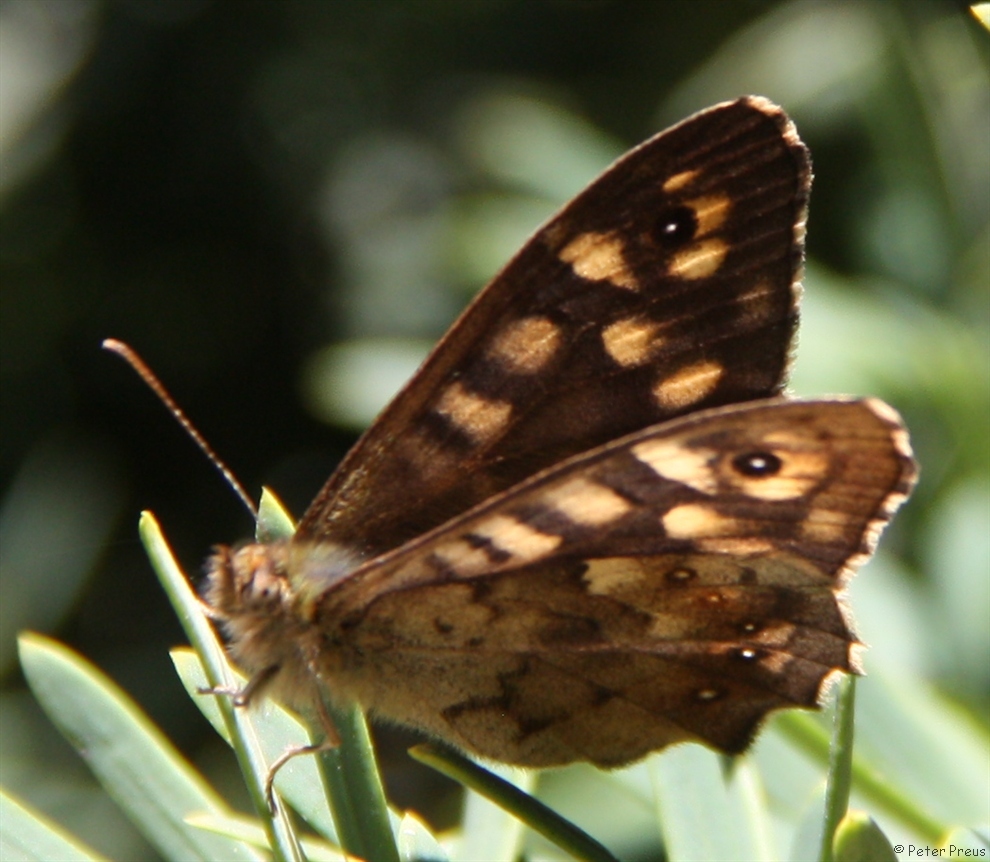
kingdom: Animalia
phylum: Arthropoda
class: Insecta
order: Lepidoptera
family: Nymphalidae
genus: Pararge
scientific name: Pararge aegeria
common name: Speckled wood
